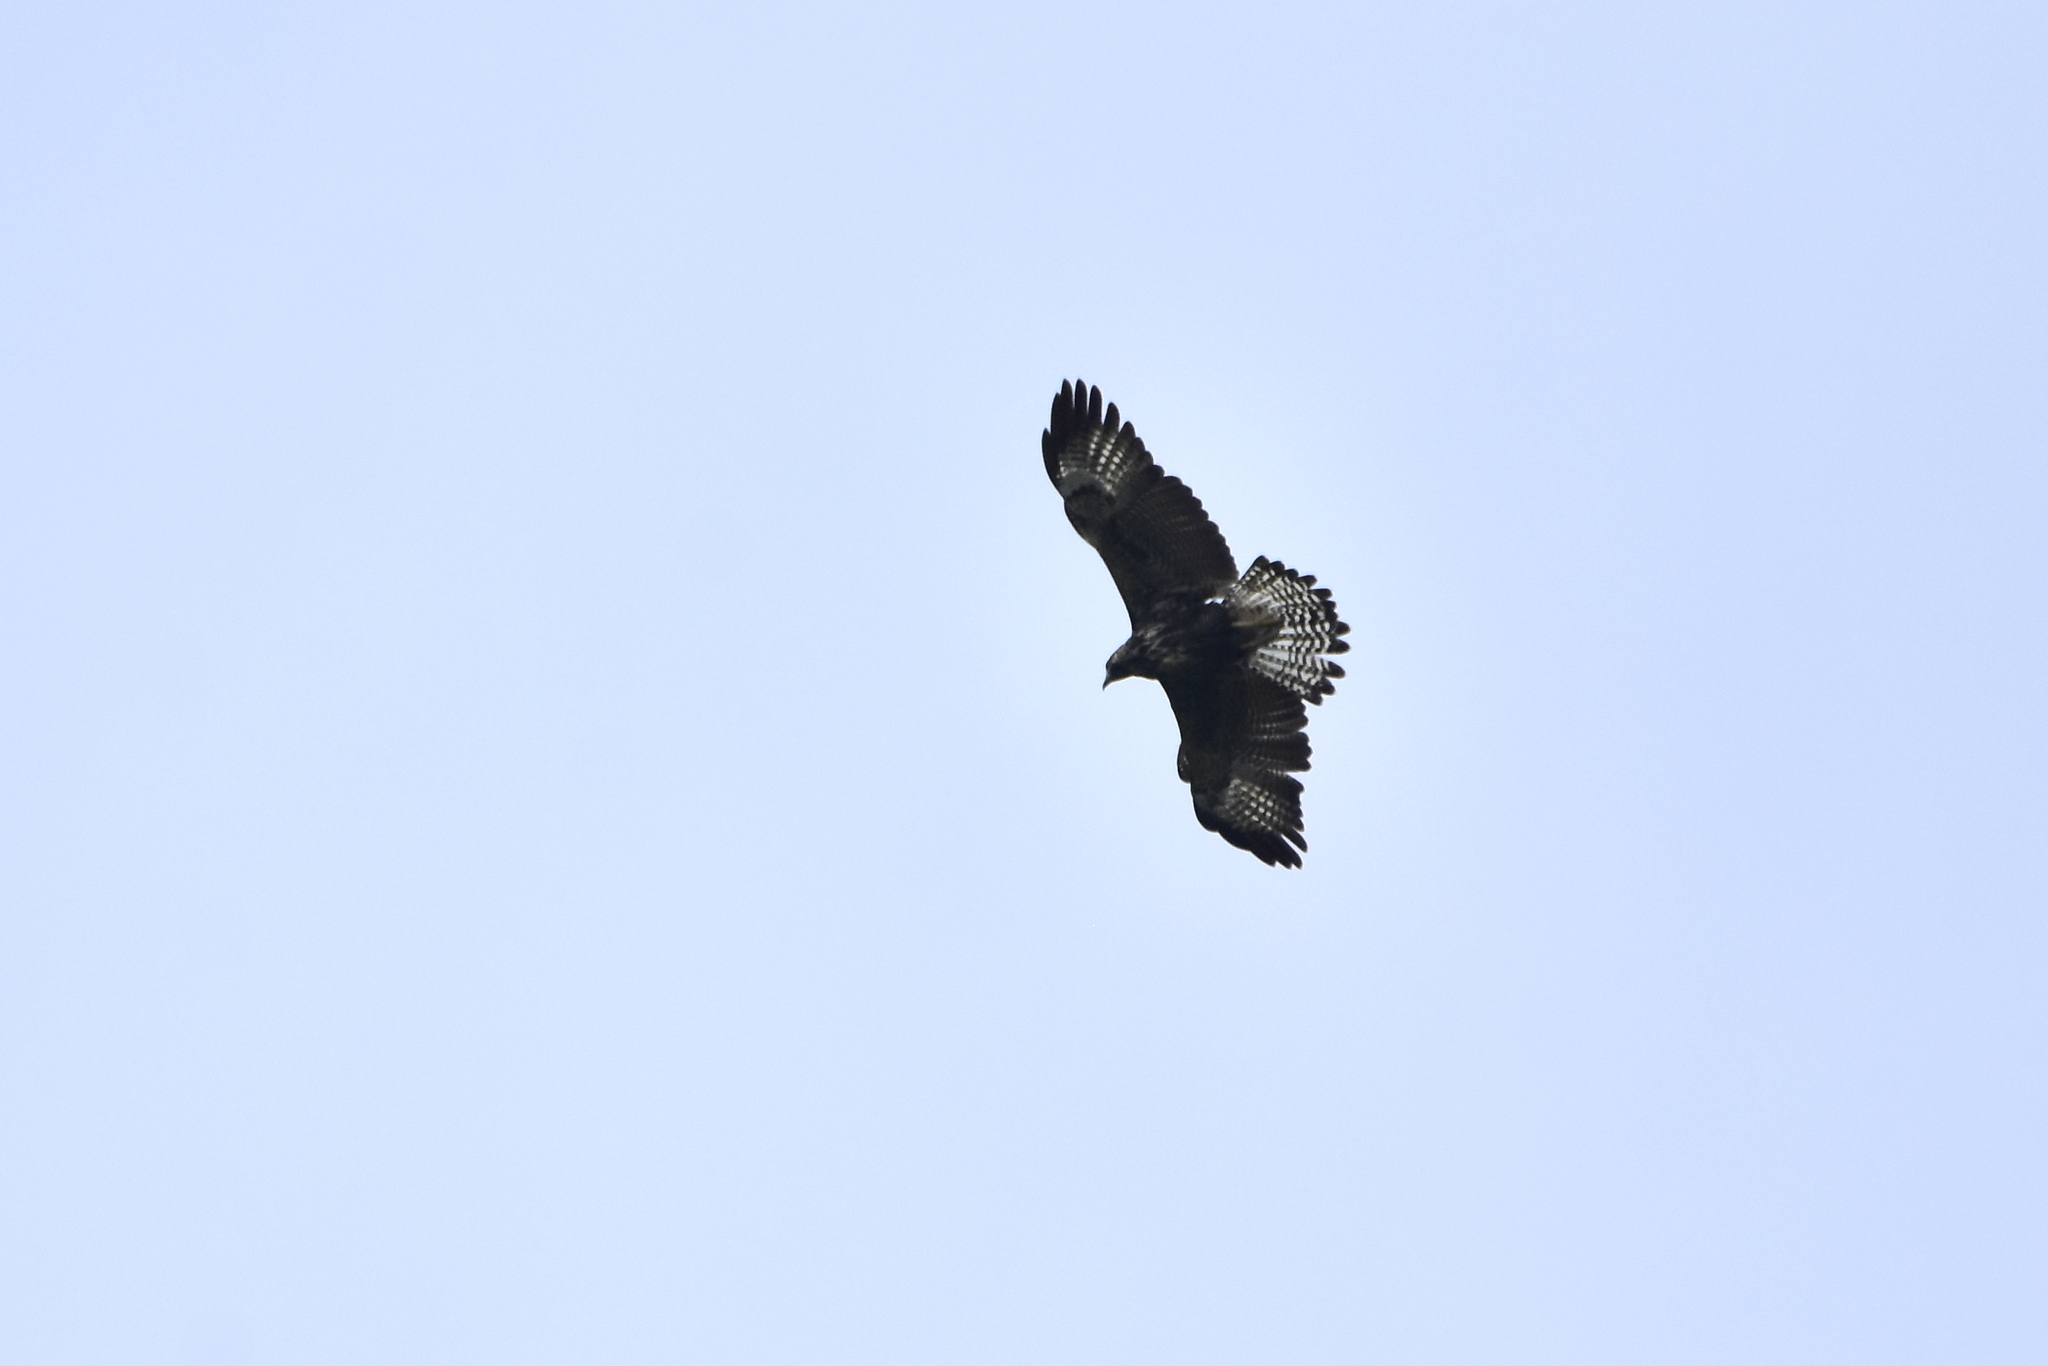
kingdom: Animalia
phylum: Chordata
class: Aves
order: Accipitriformes
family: Accipitridae
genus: Buteogallus
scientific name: Buteogallus anthracinus
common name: Common black hawk
